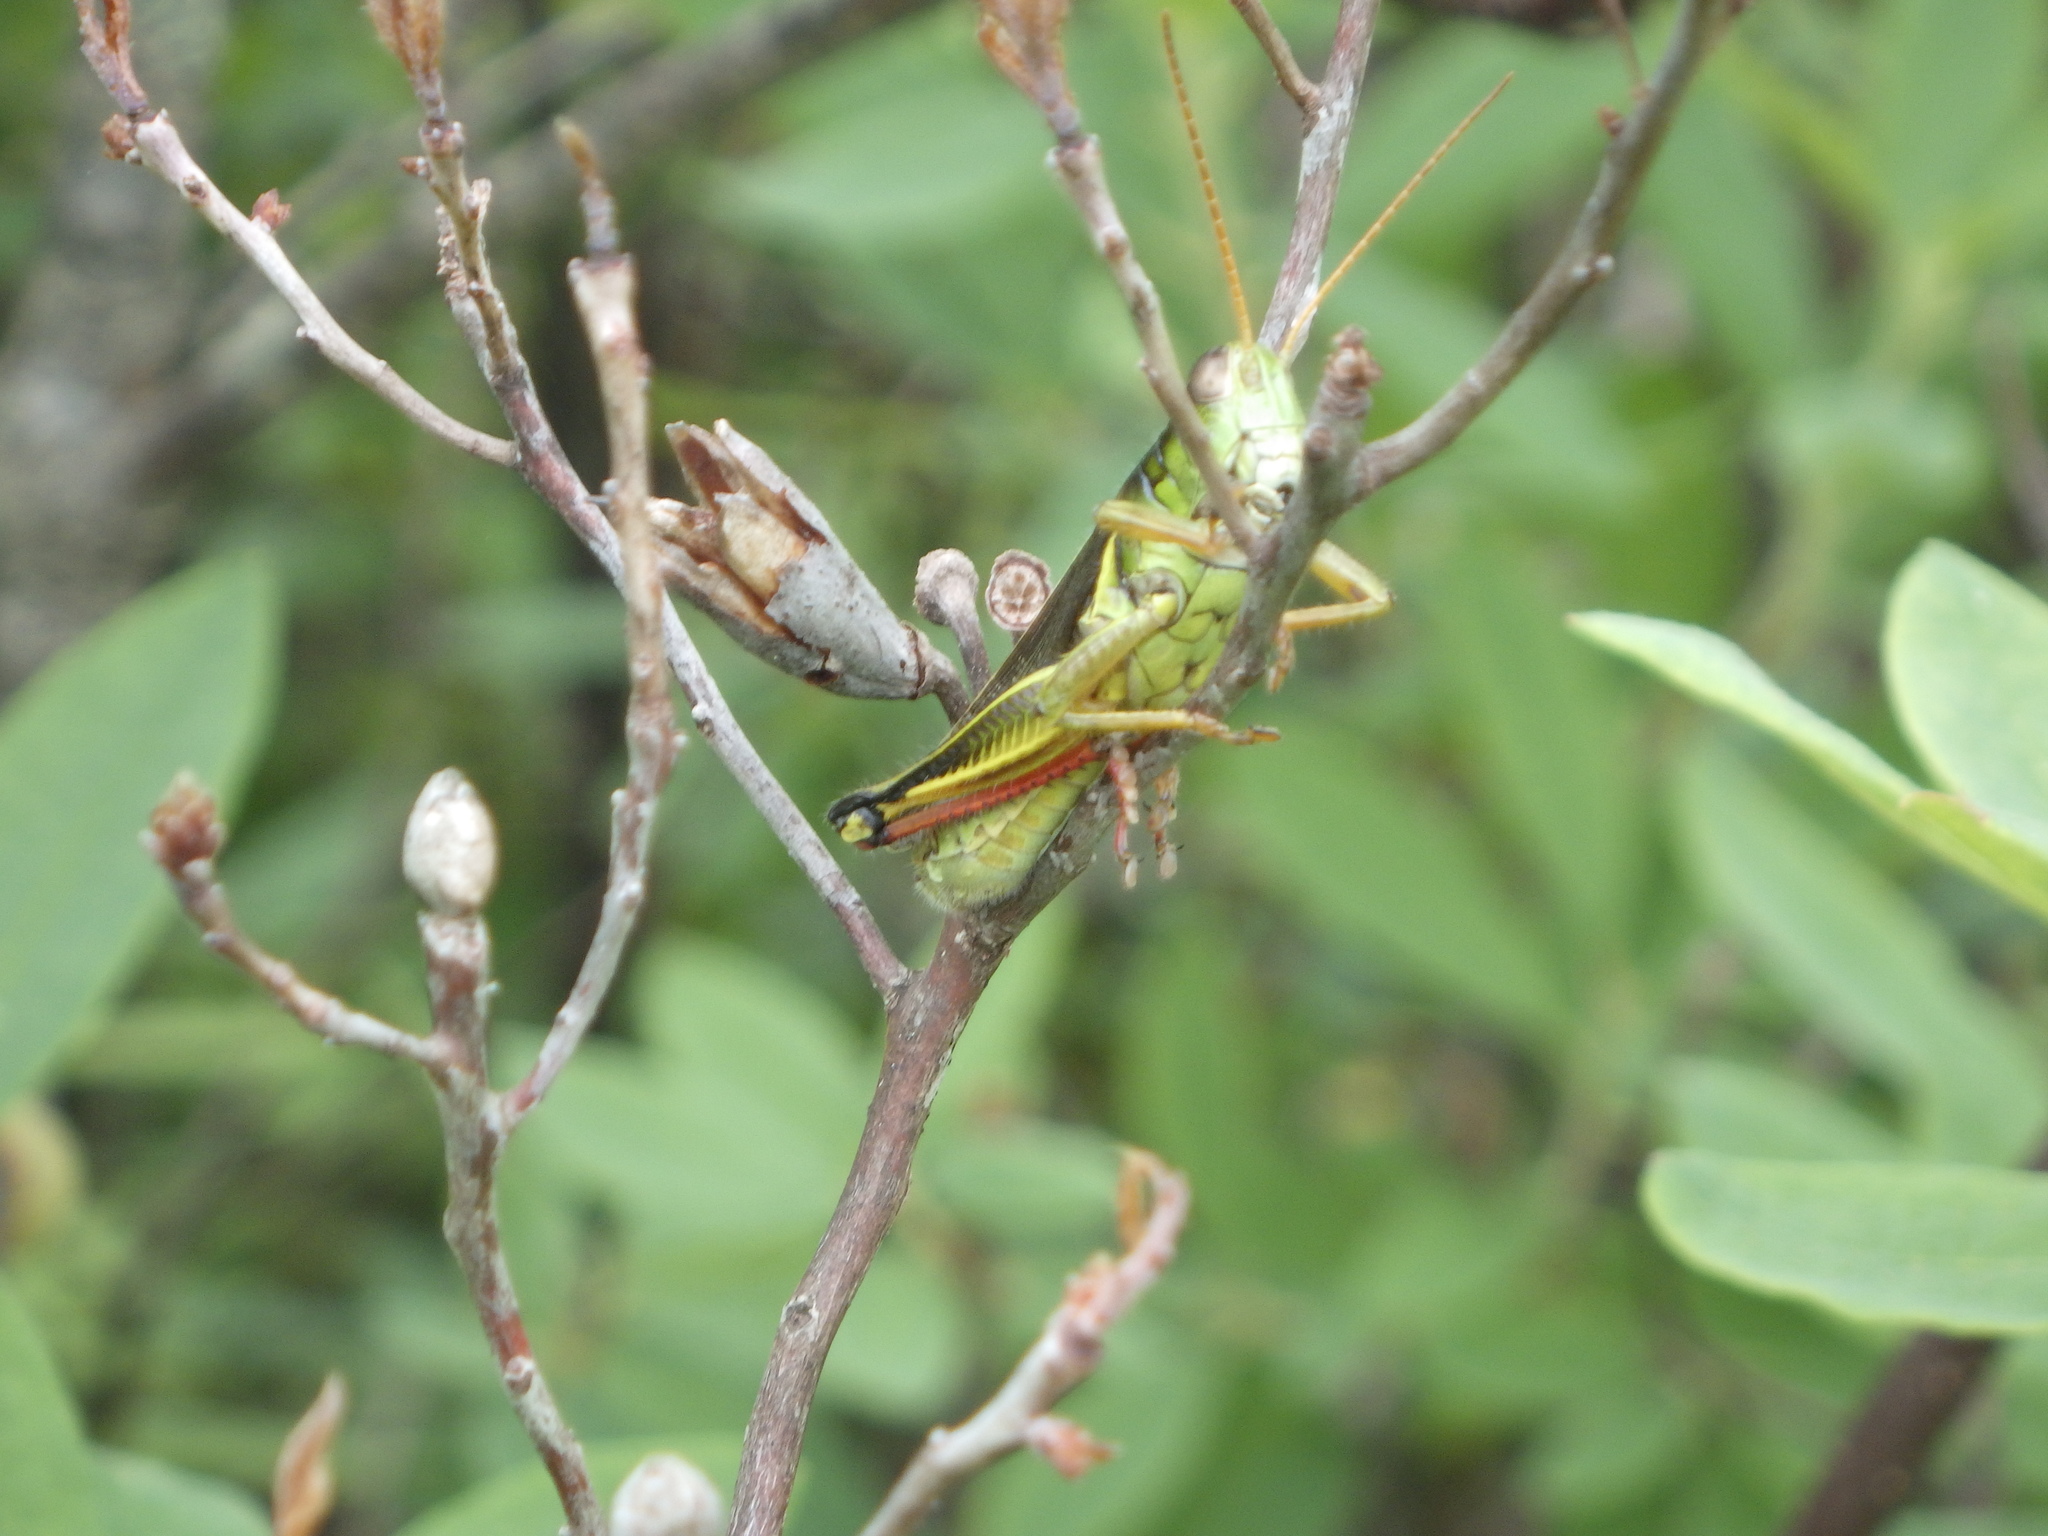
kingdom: Animalia
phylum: Arthropoda
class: Insecta
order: Orthoptera
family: Acrididae
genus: Melanoplus
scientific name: Melanoplus bivittatus
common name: Two-striped grasshopper
